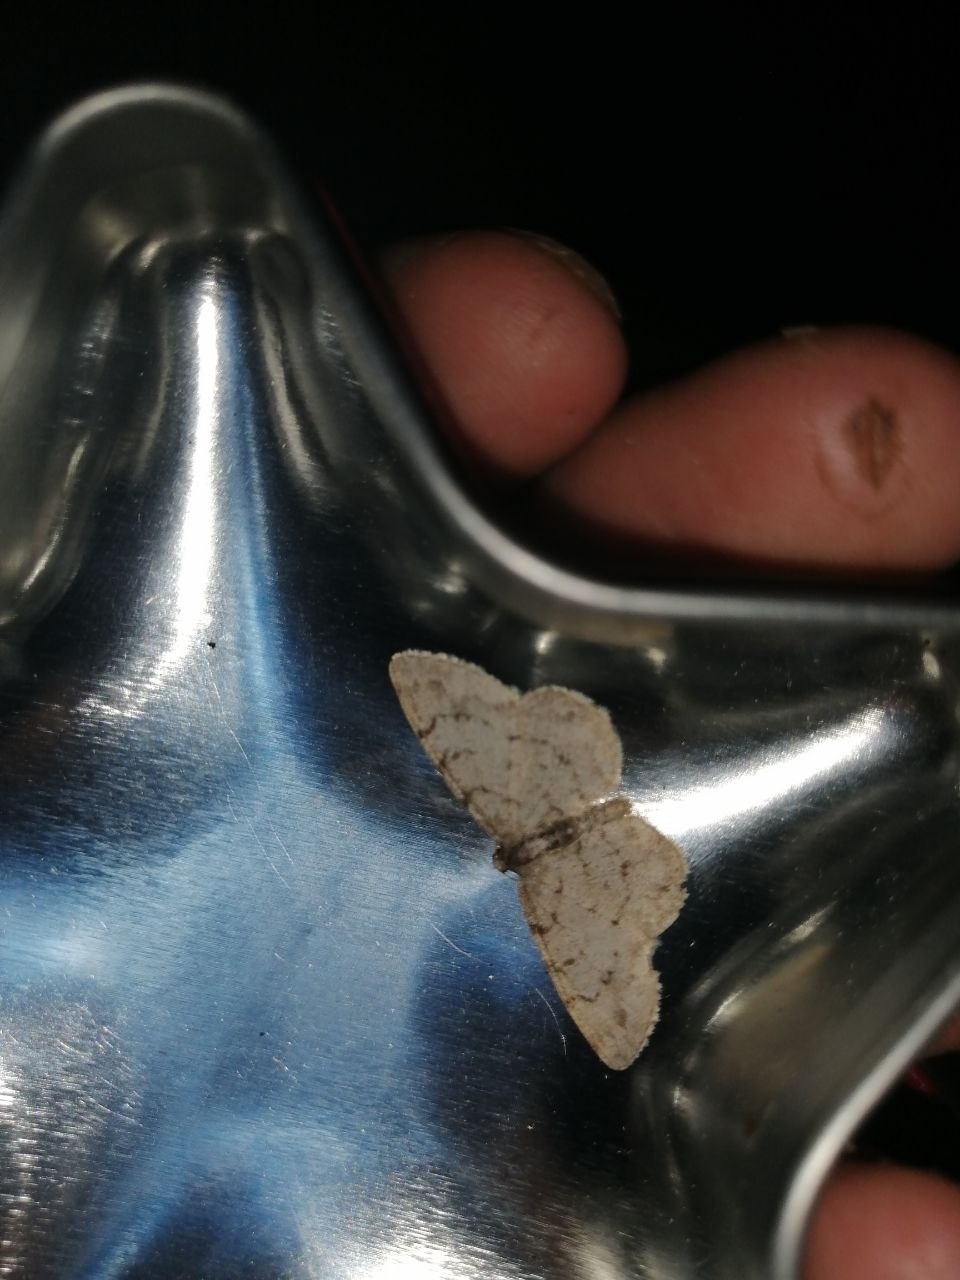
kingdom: Animalia
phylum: Arthropoda
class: Insecta
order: Lepidoptera
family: Geometridae
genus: Aethalura
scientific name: Aethalura punctulata
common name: Grey birch
